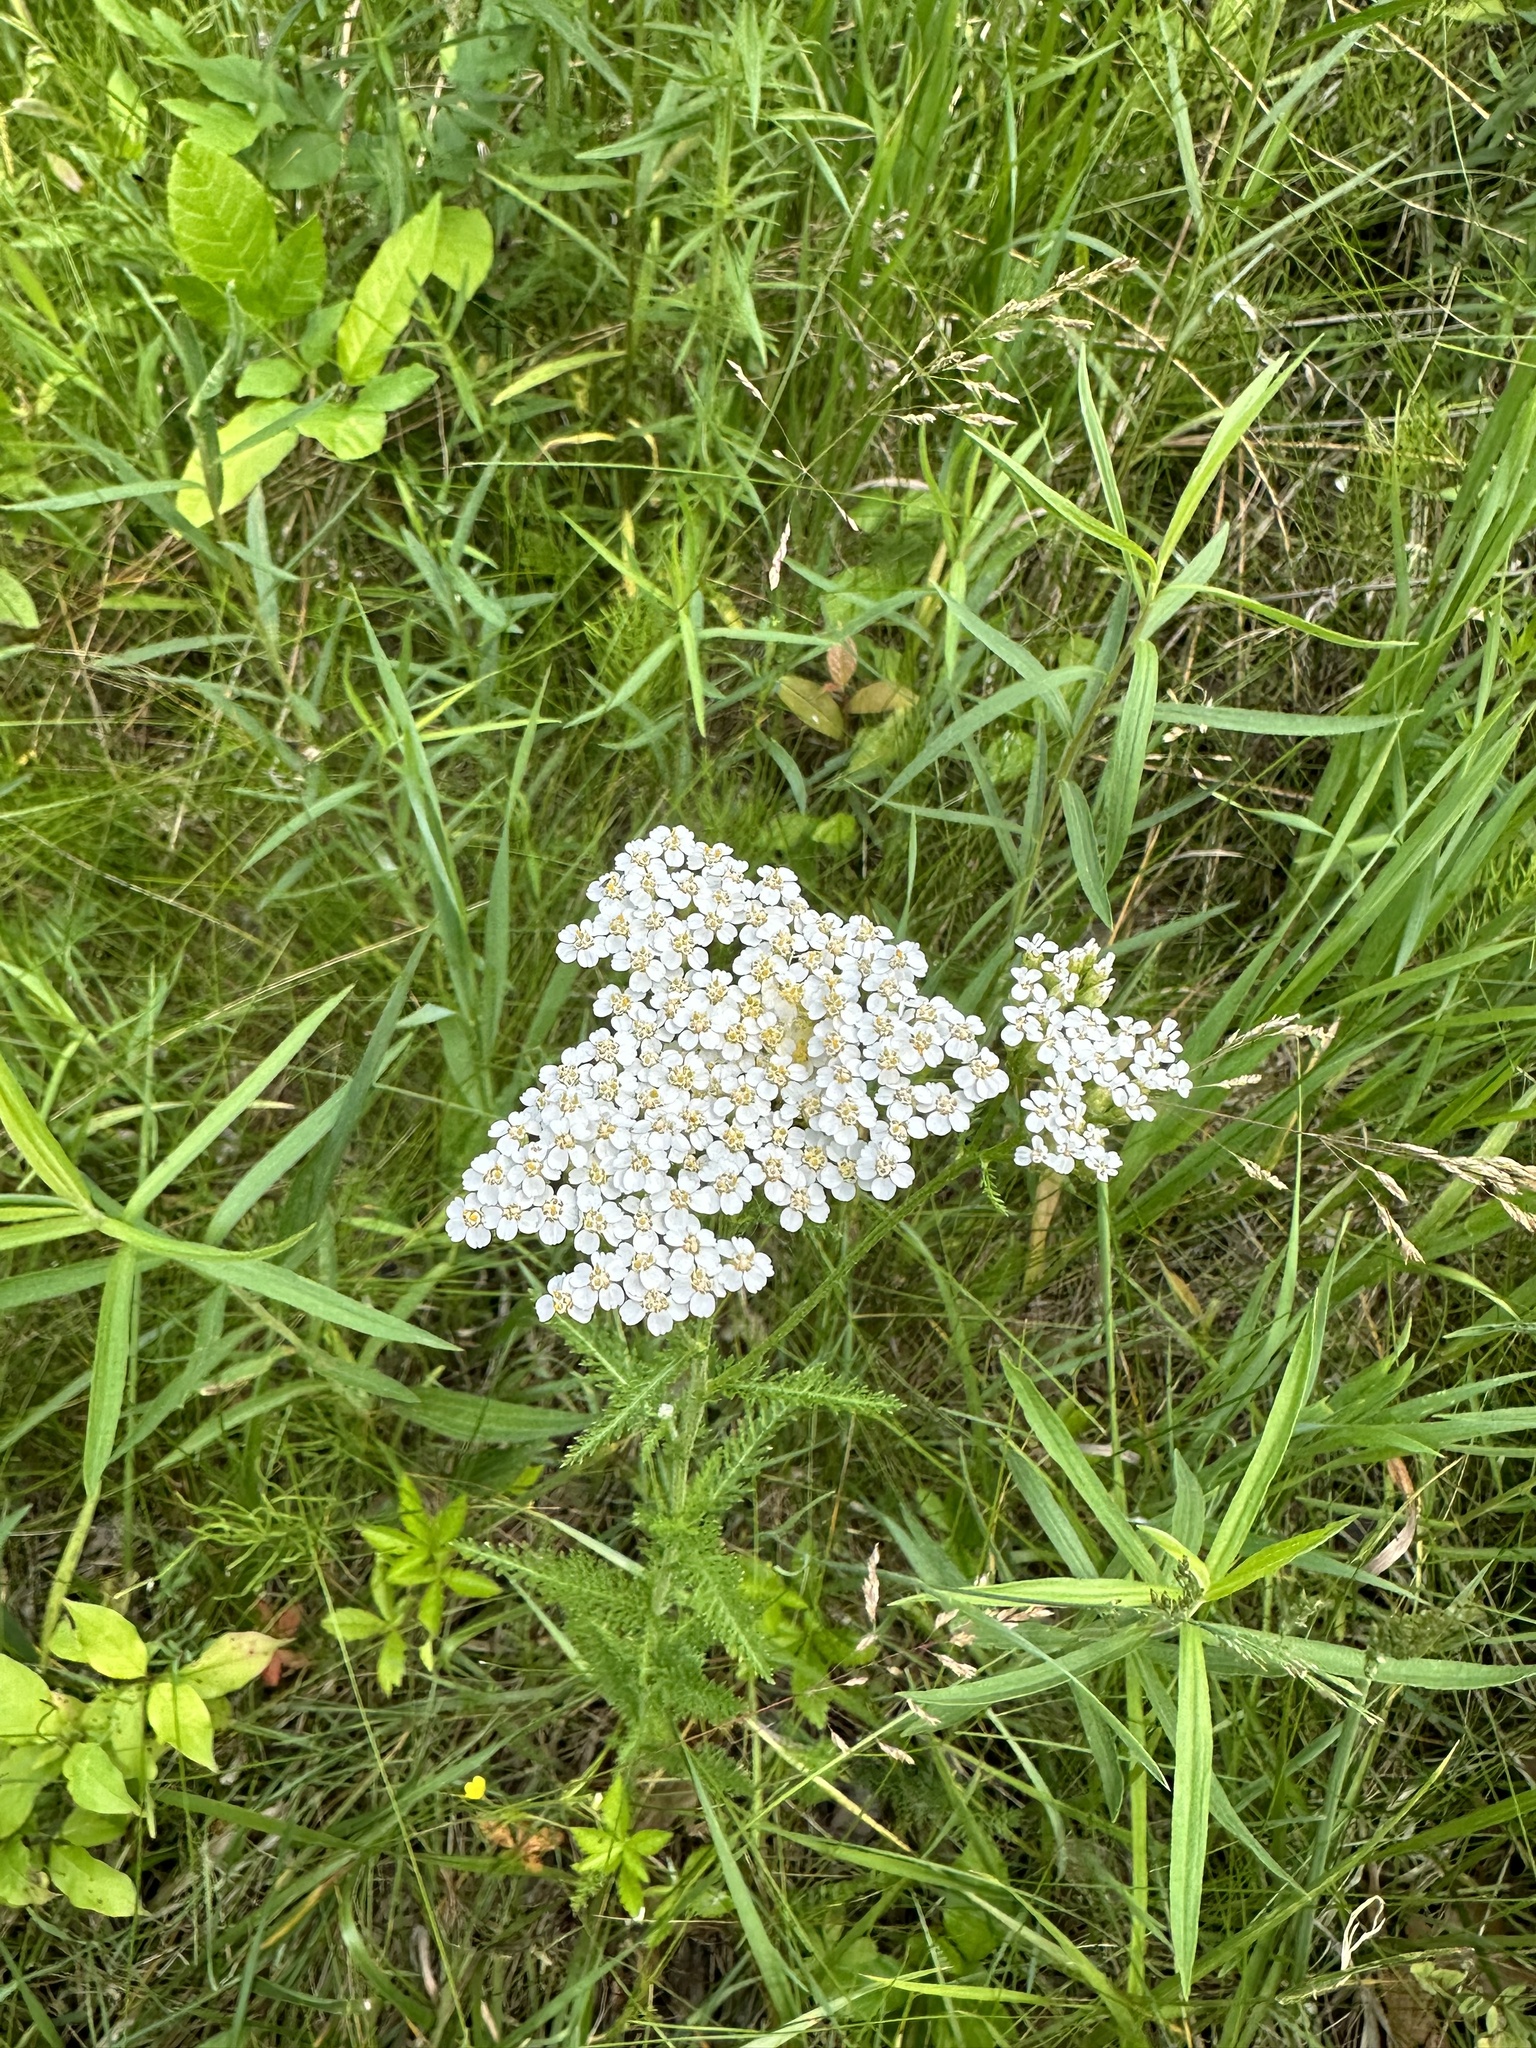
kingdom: Plantae
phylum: Tracheophyta
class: Magnoliopsida
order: Asterales
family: Asteraceae
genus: Achillea
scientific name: Achillea millefolium
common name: Yarrow
